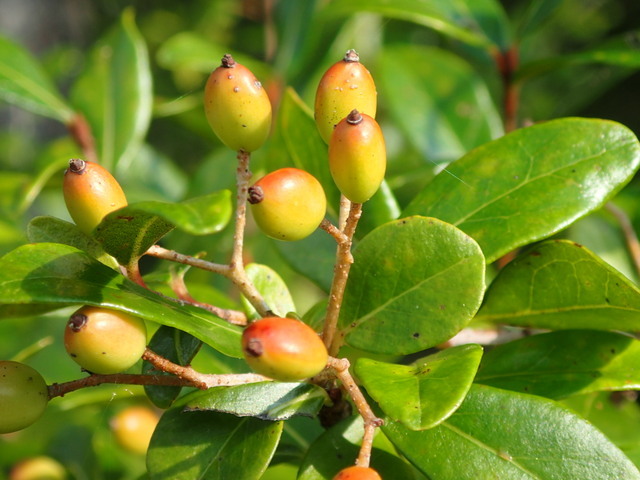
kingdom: Plantae
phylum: Tracheophyta
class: Magnoliopsida
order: Dipsacales
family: Viburnaceae
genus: Viburnum
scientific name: Viburnum obovatum
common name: Walter's viburnum
